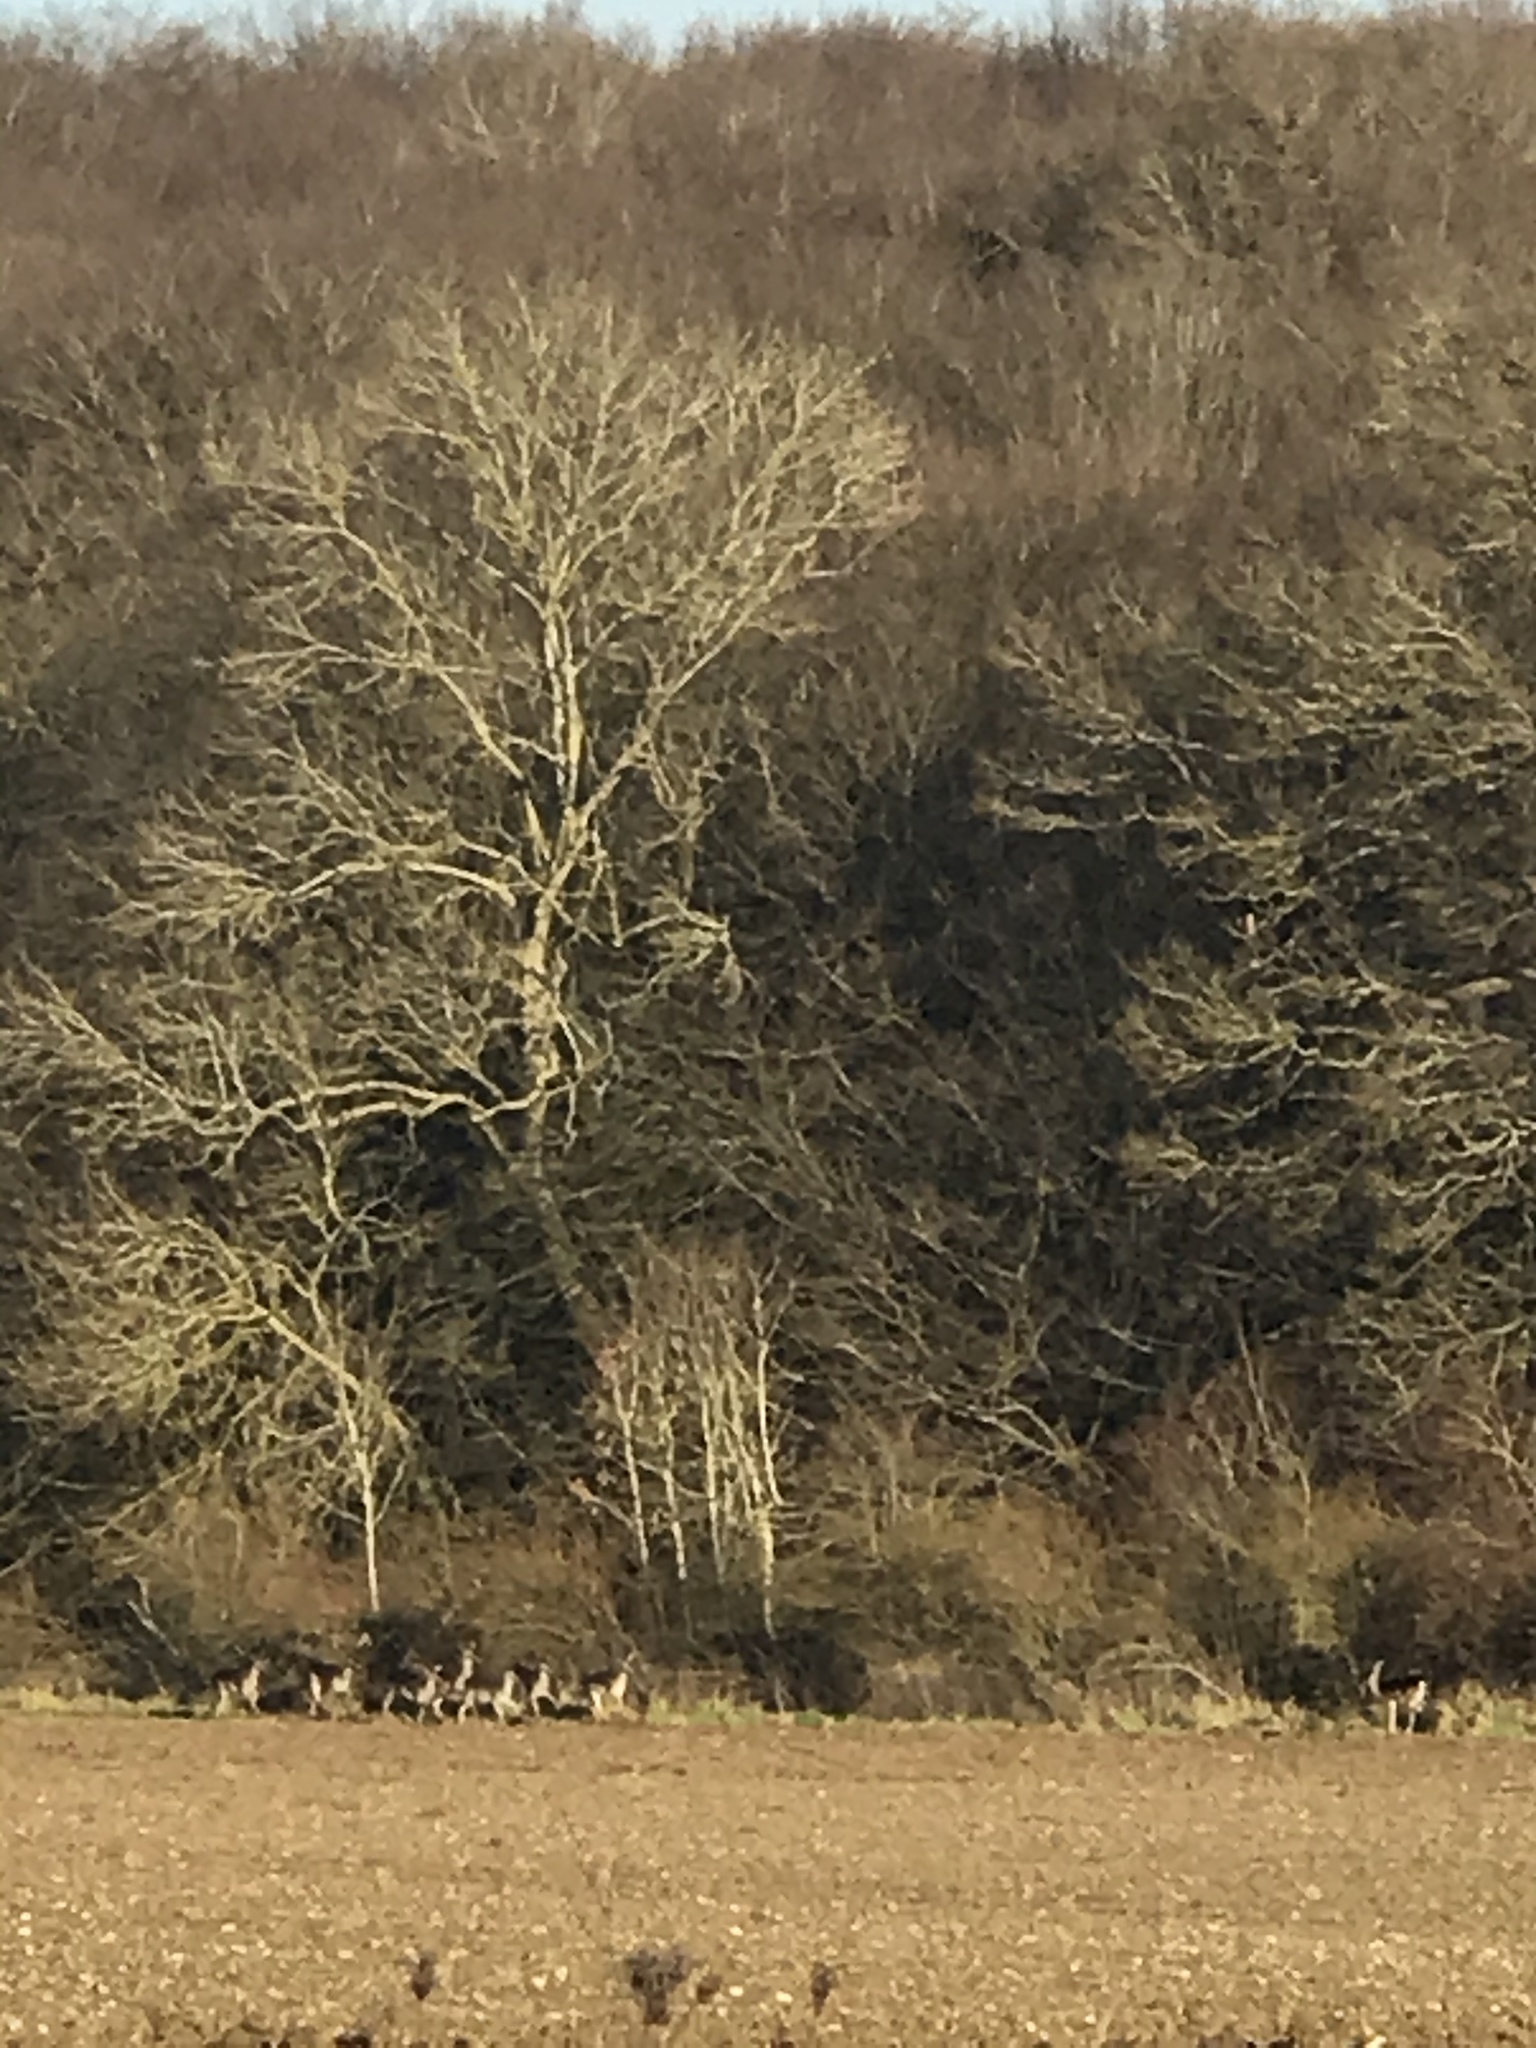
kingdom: Animalia
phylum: Chordata
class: Mammalia
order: Artiodactyla
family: Cervidae
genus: Dama
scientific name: Dama dama
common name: Fallow deer
